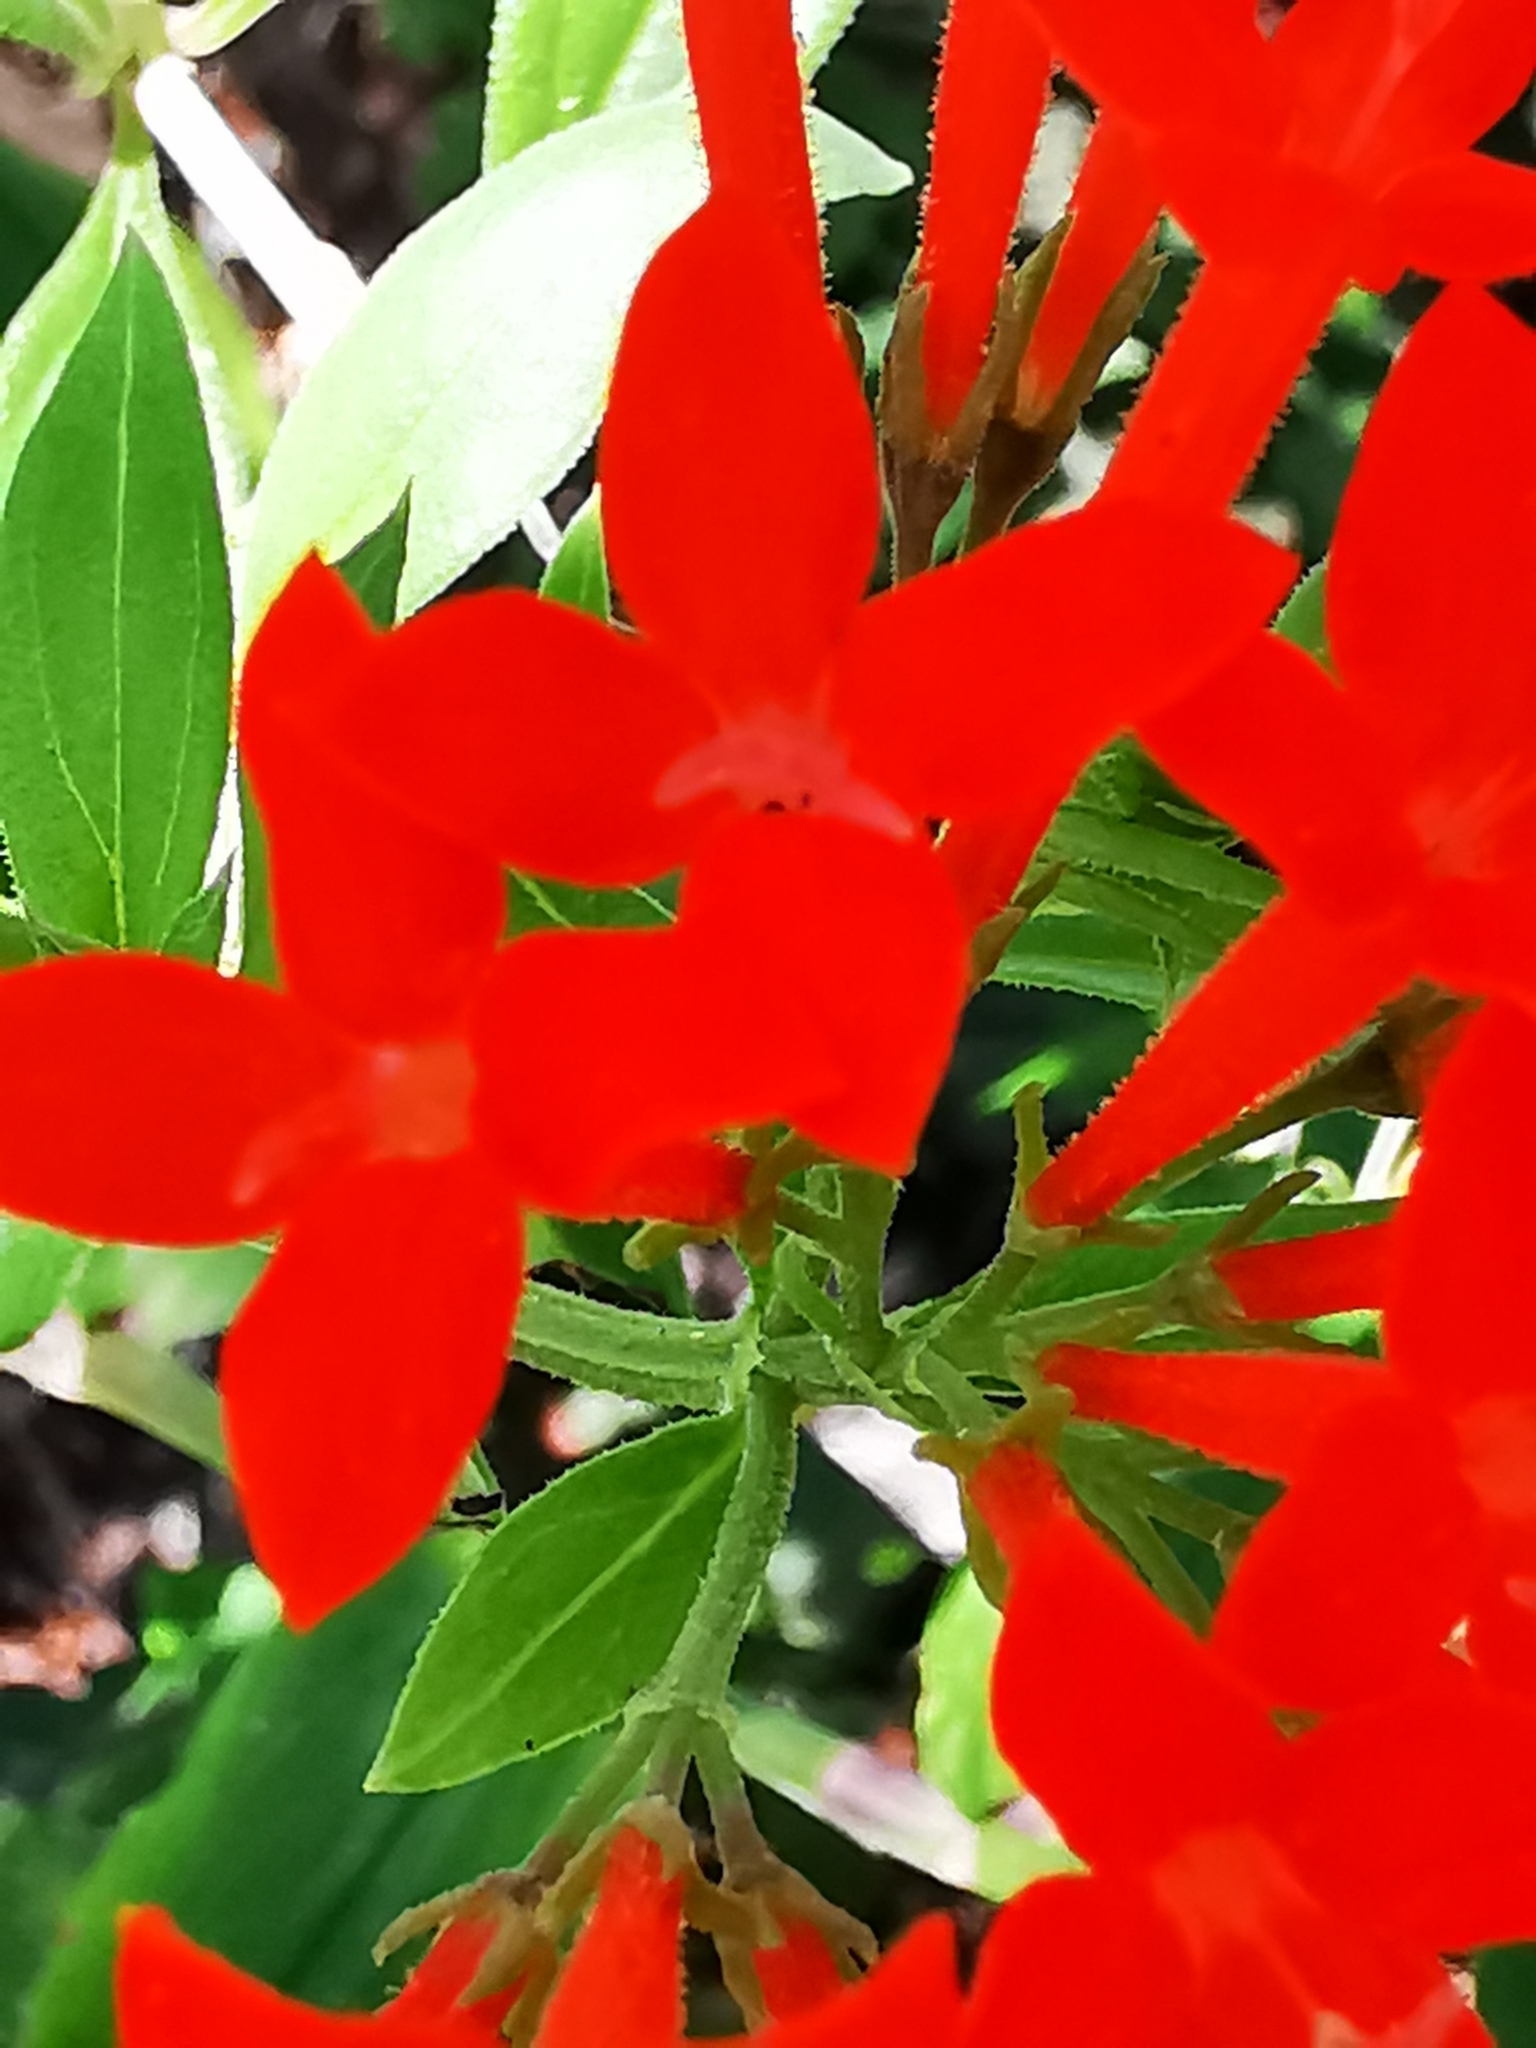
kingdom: Plantae
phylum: Tracheophyta
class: Magnoliopsida
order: Gentianales
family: Rubiaceae
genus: Bouvardia
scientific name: Bouvardia ternifolia
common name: Scarlet bouvardia
